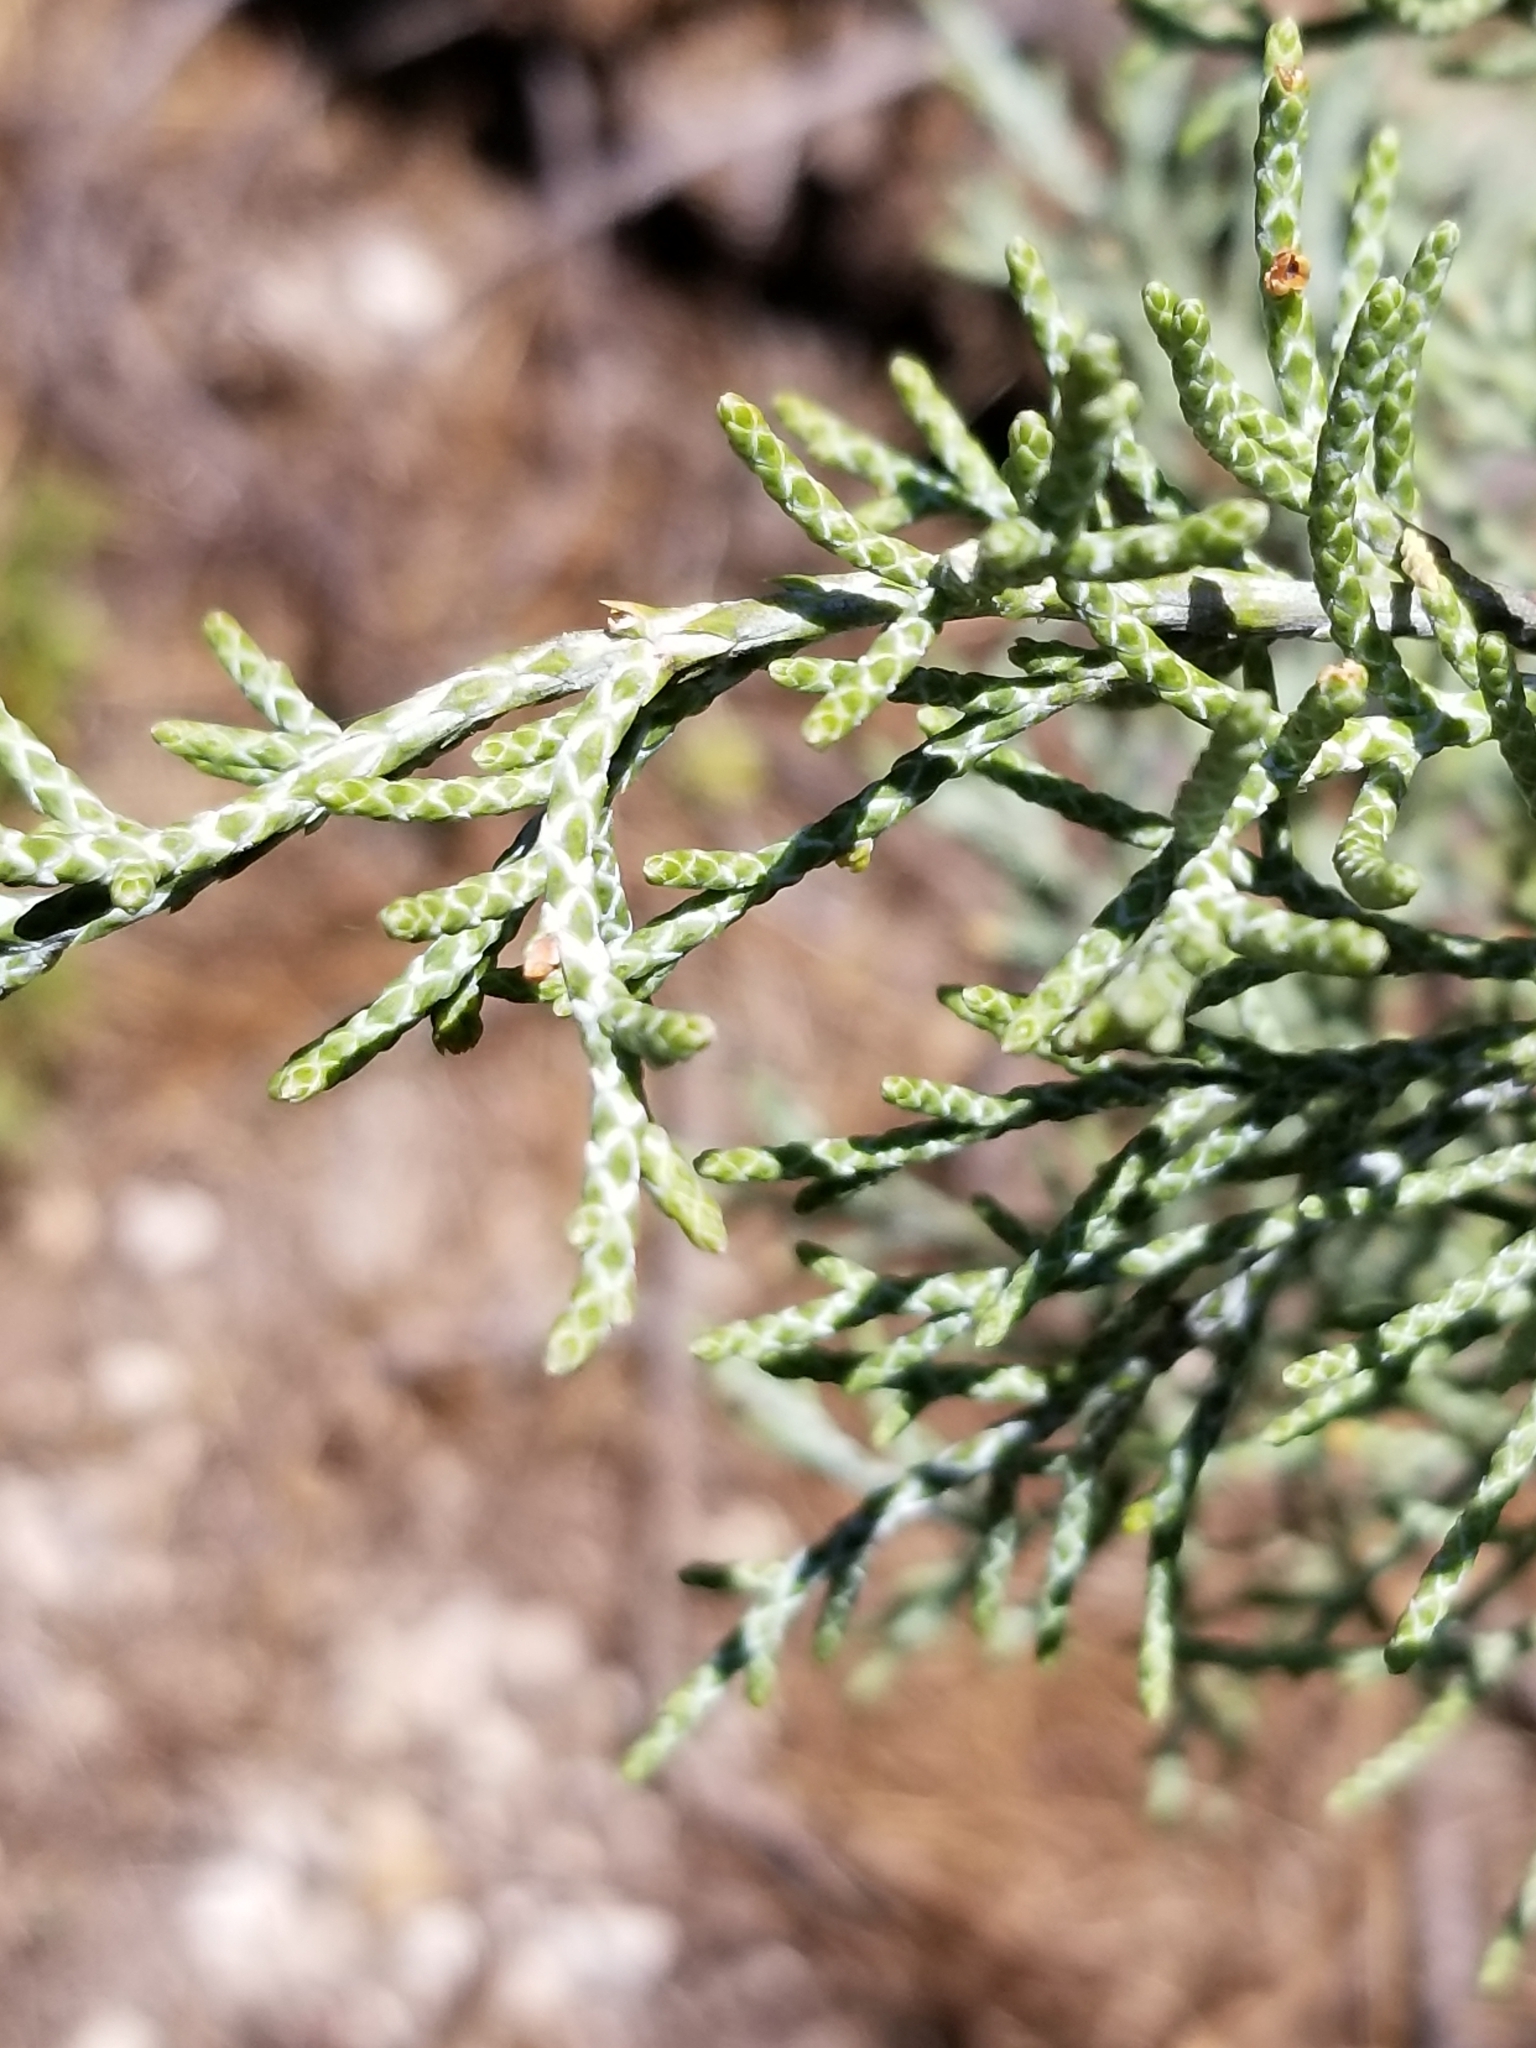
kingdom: Plantae
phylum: Tracheophyta
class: Pinopsida
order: Pinales
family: Cupressaceae
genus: Juniperus
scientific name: Juniperus occidentalis
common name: Western juniper
